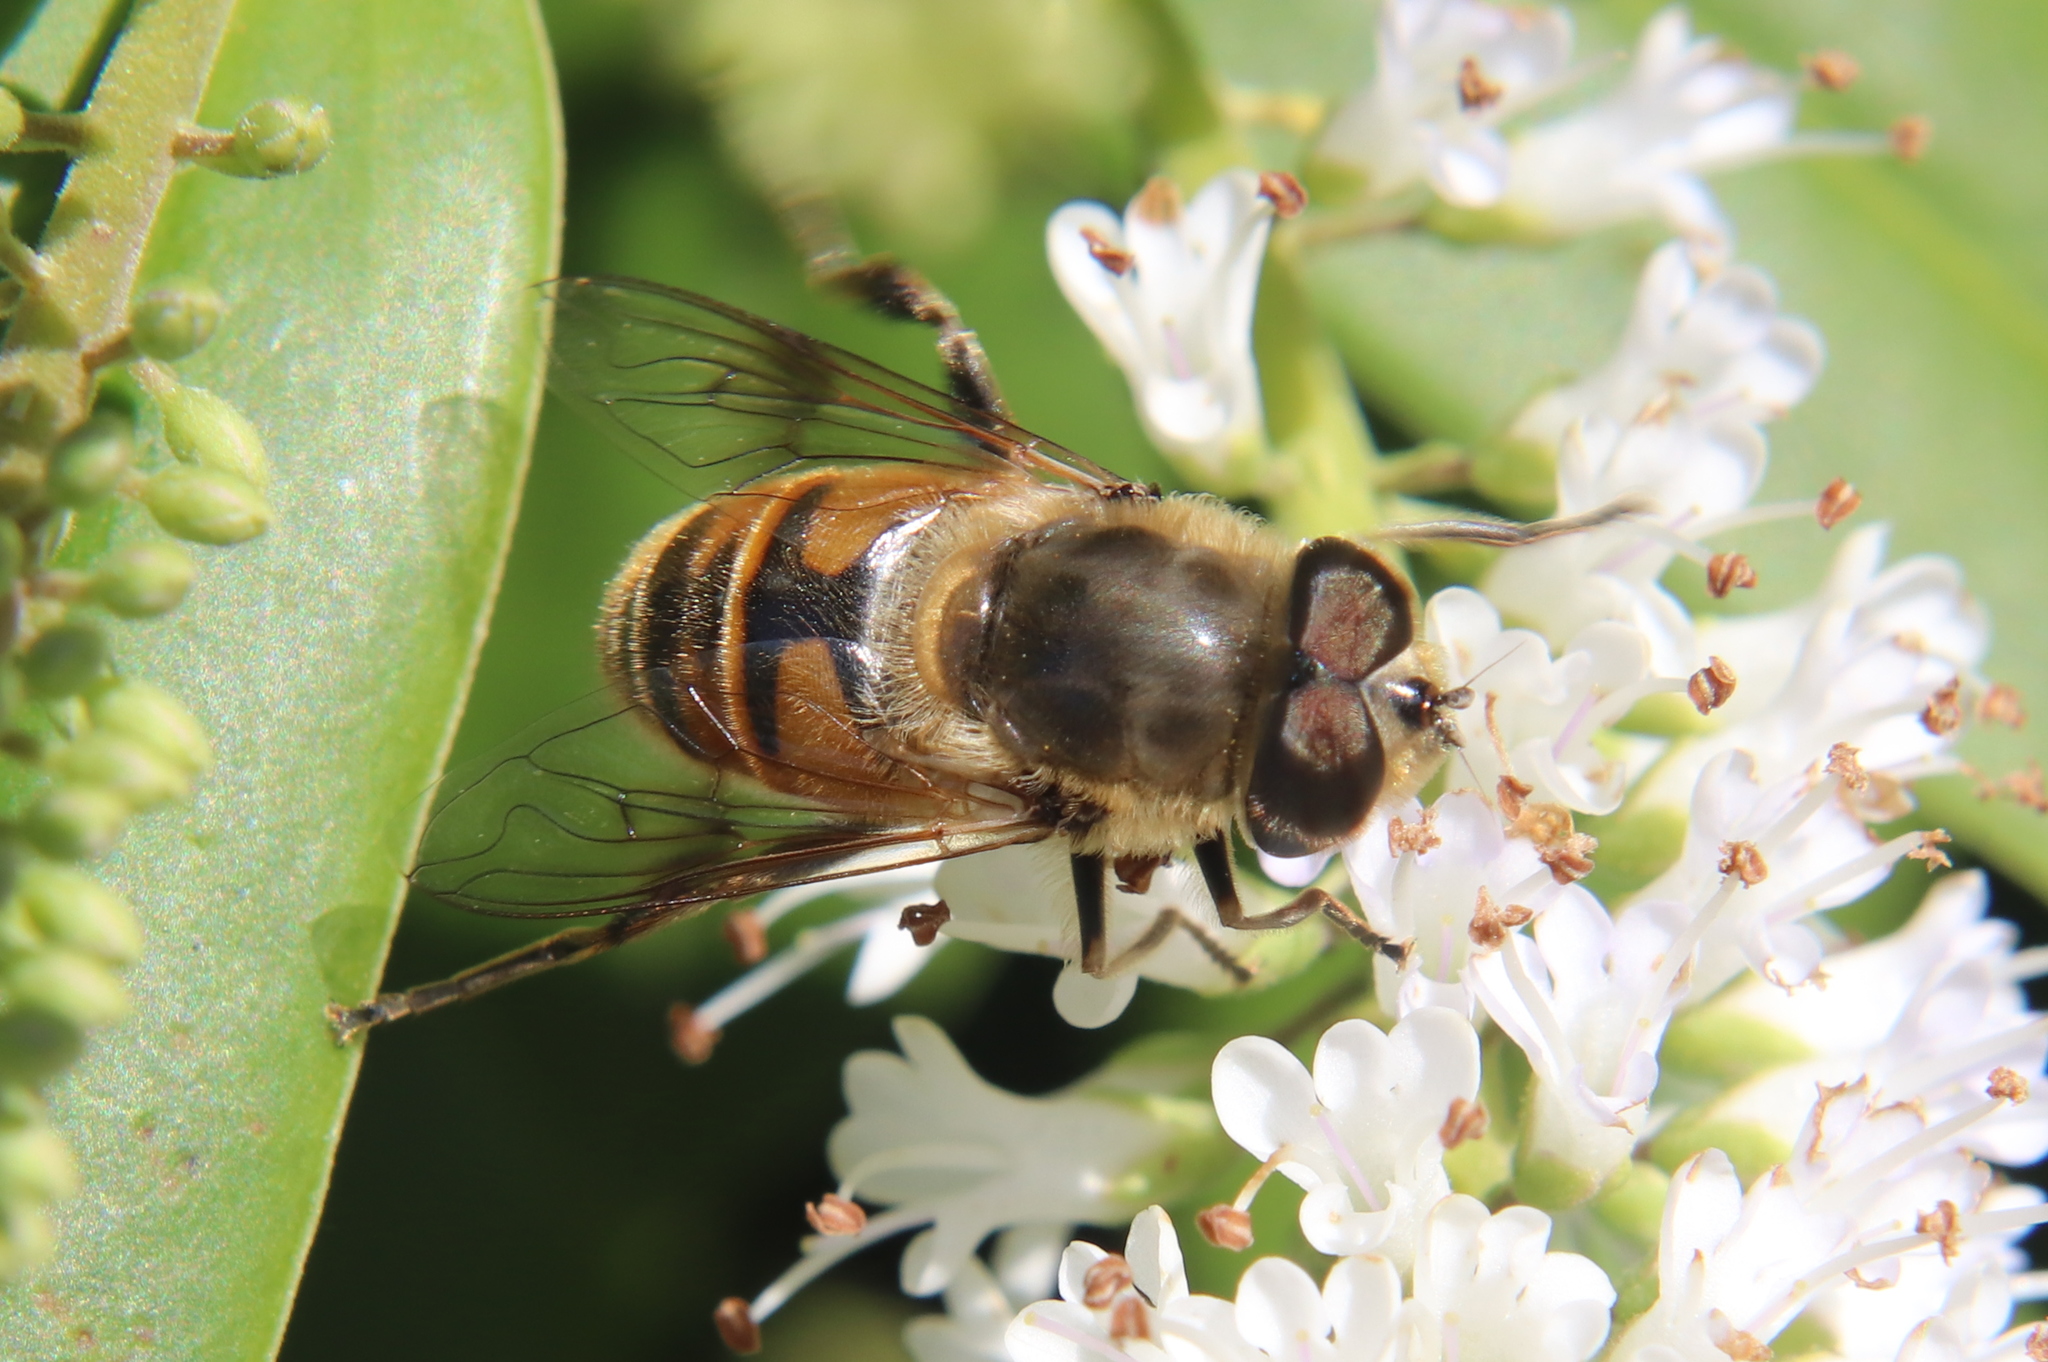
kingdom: Animalia
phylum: Arthropoda
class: Insecta
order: Diptera
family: Syrphidae
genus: Eristalis
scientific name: Eristalis tenax
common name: Drone fly
